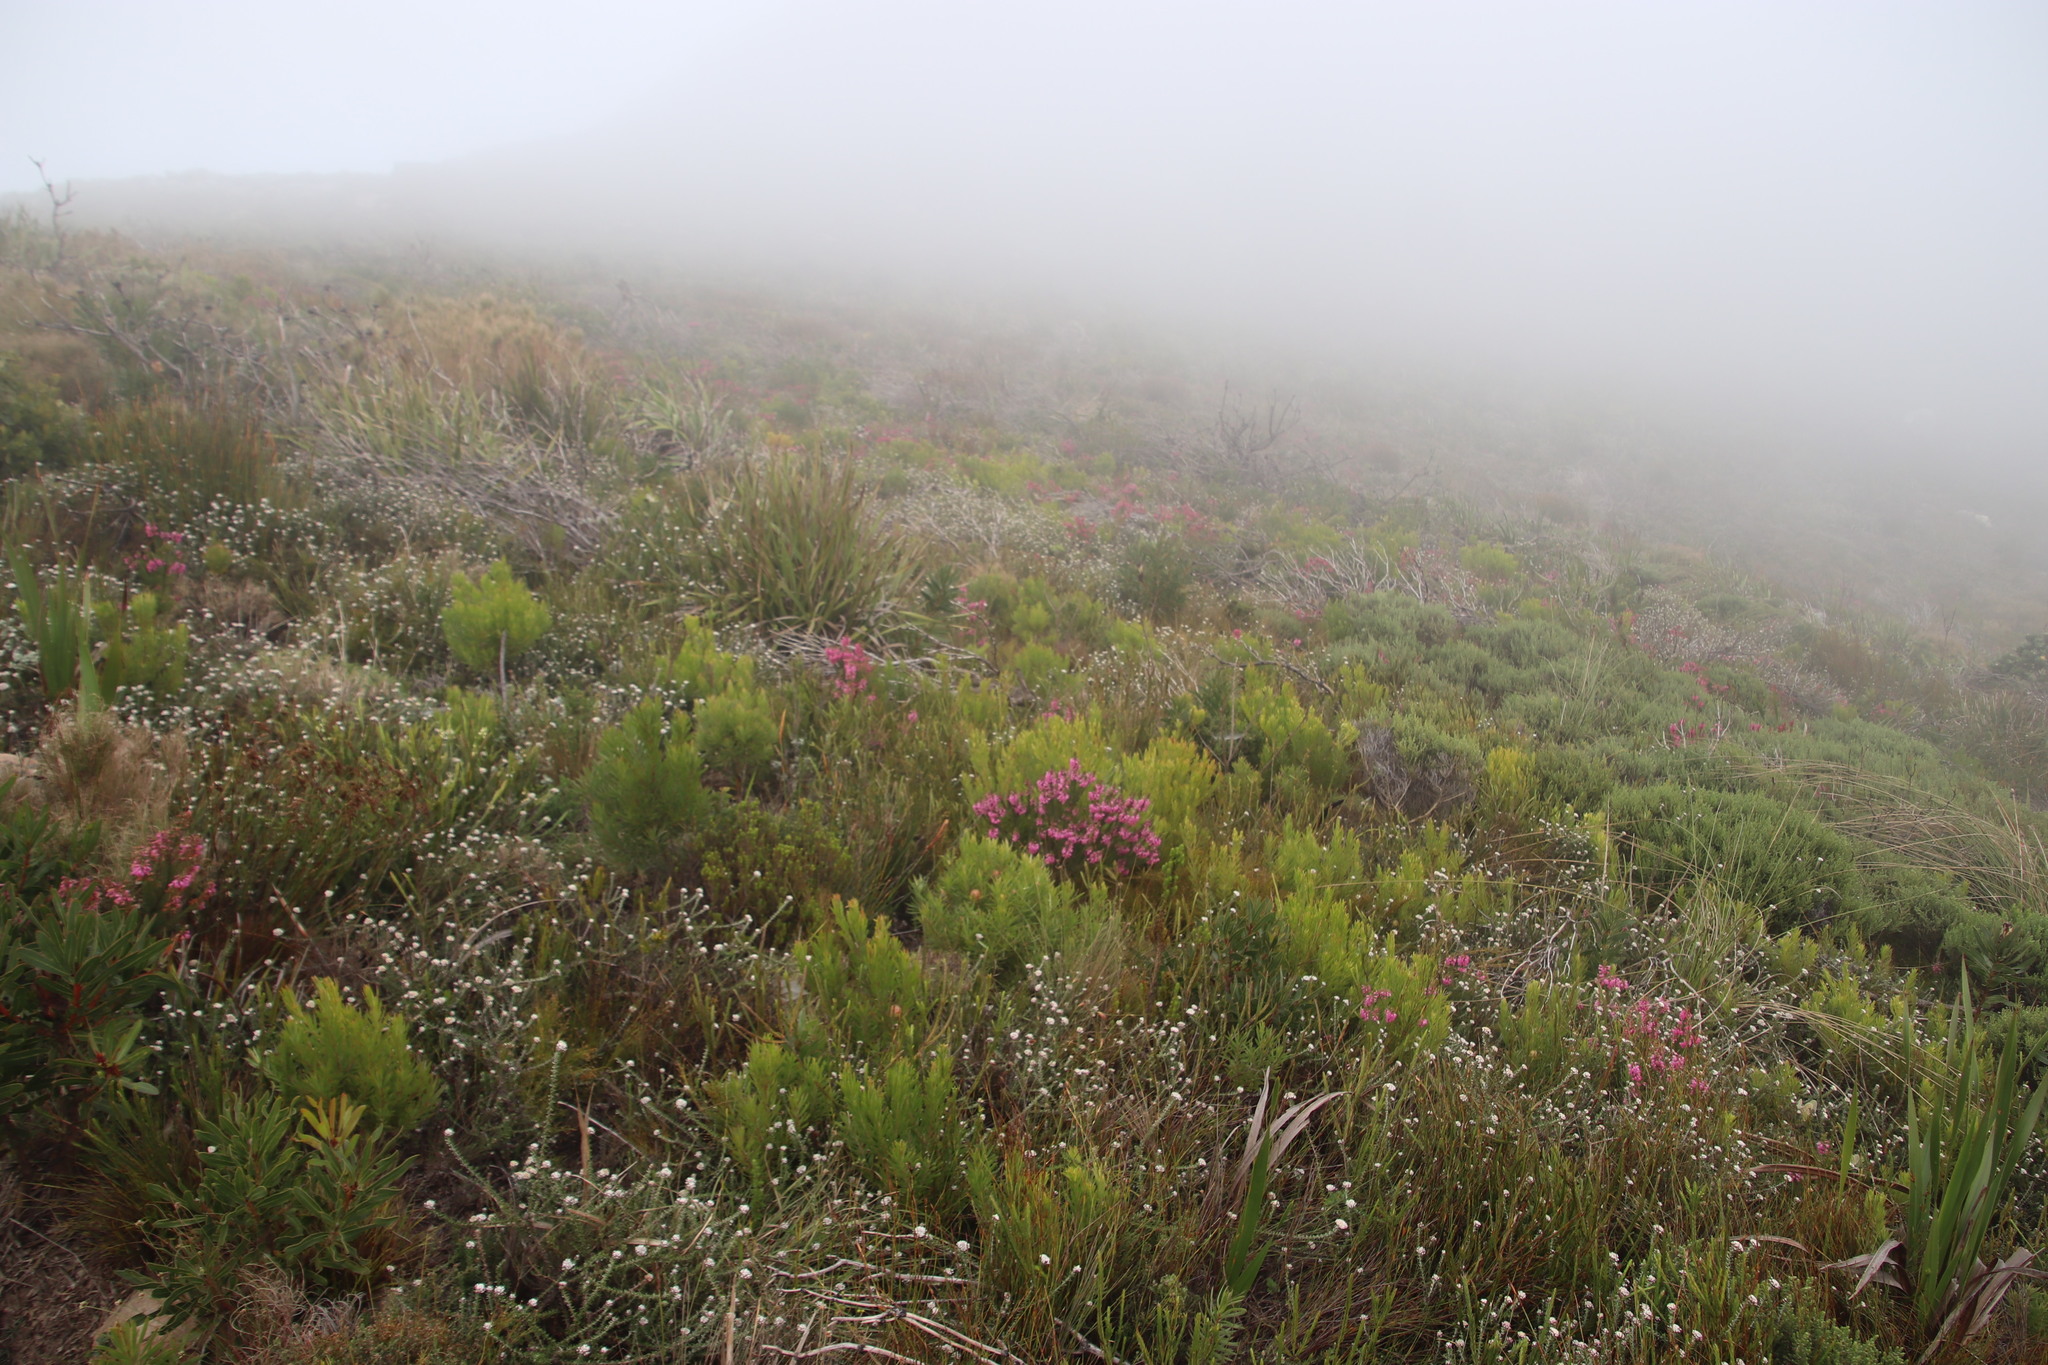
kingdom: Plantae
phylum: Tracheophyta
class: Magnoliopsida
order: Proteales
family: Proteaceae
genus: Leucadendron
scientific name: Leucadendron xanthoconus
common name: Sickle-leaf conebush
